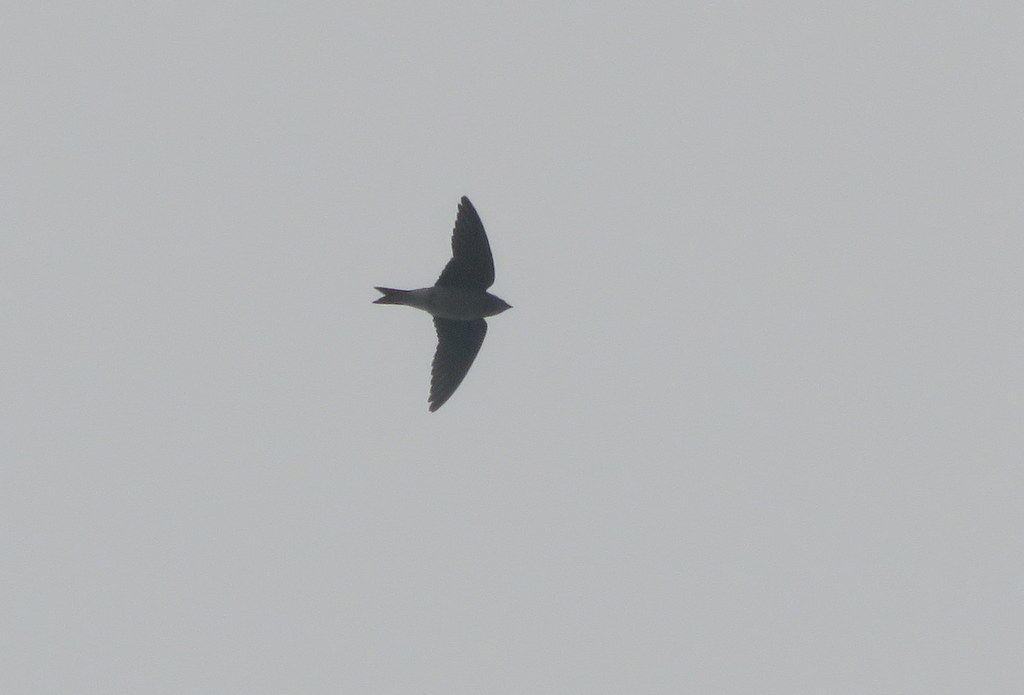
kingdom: Animalia
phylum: Chordata
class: Aves
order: Passeriformes
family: Hirundinidae
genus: Progne
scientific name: Progne chalybea
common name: Grey-breasted martin
